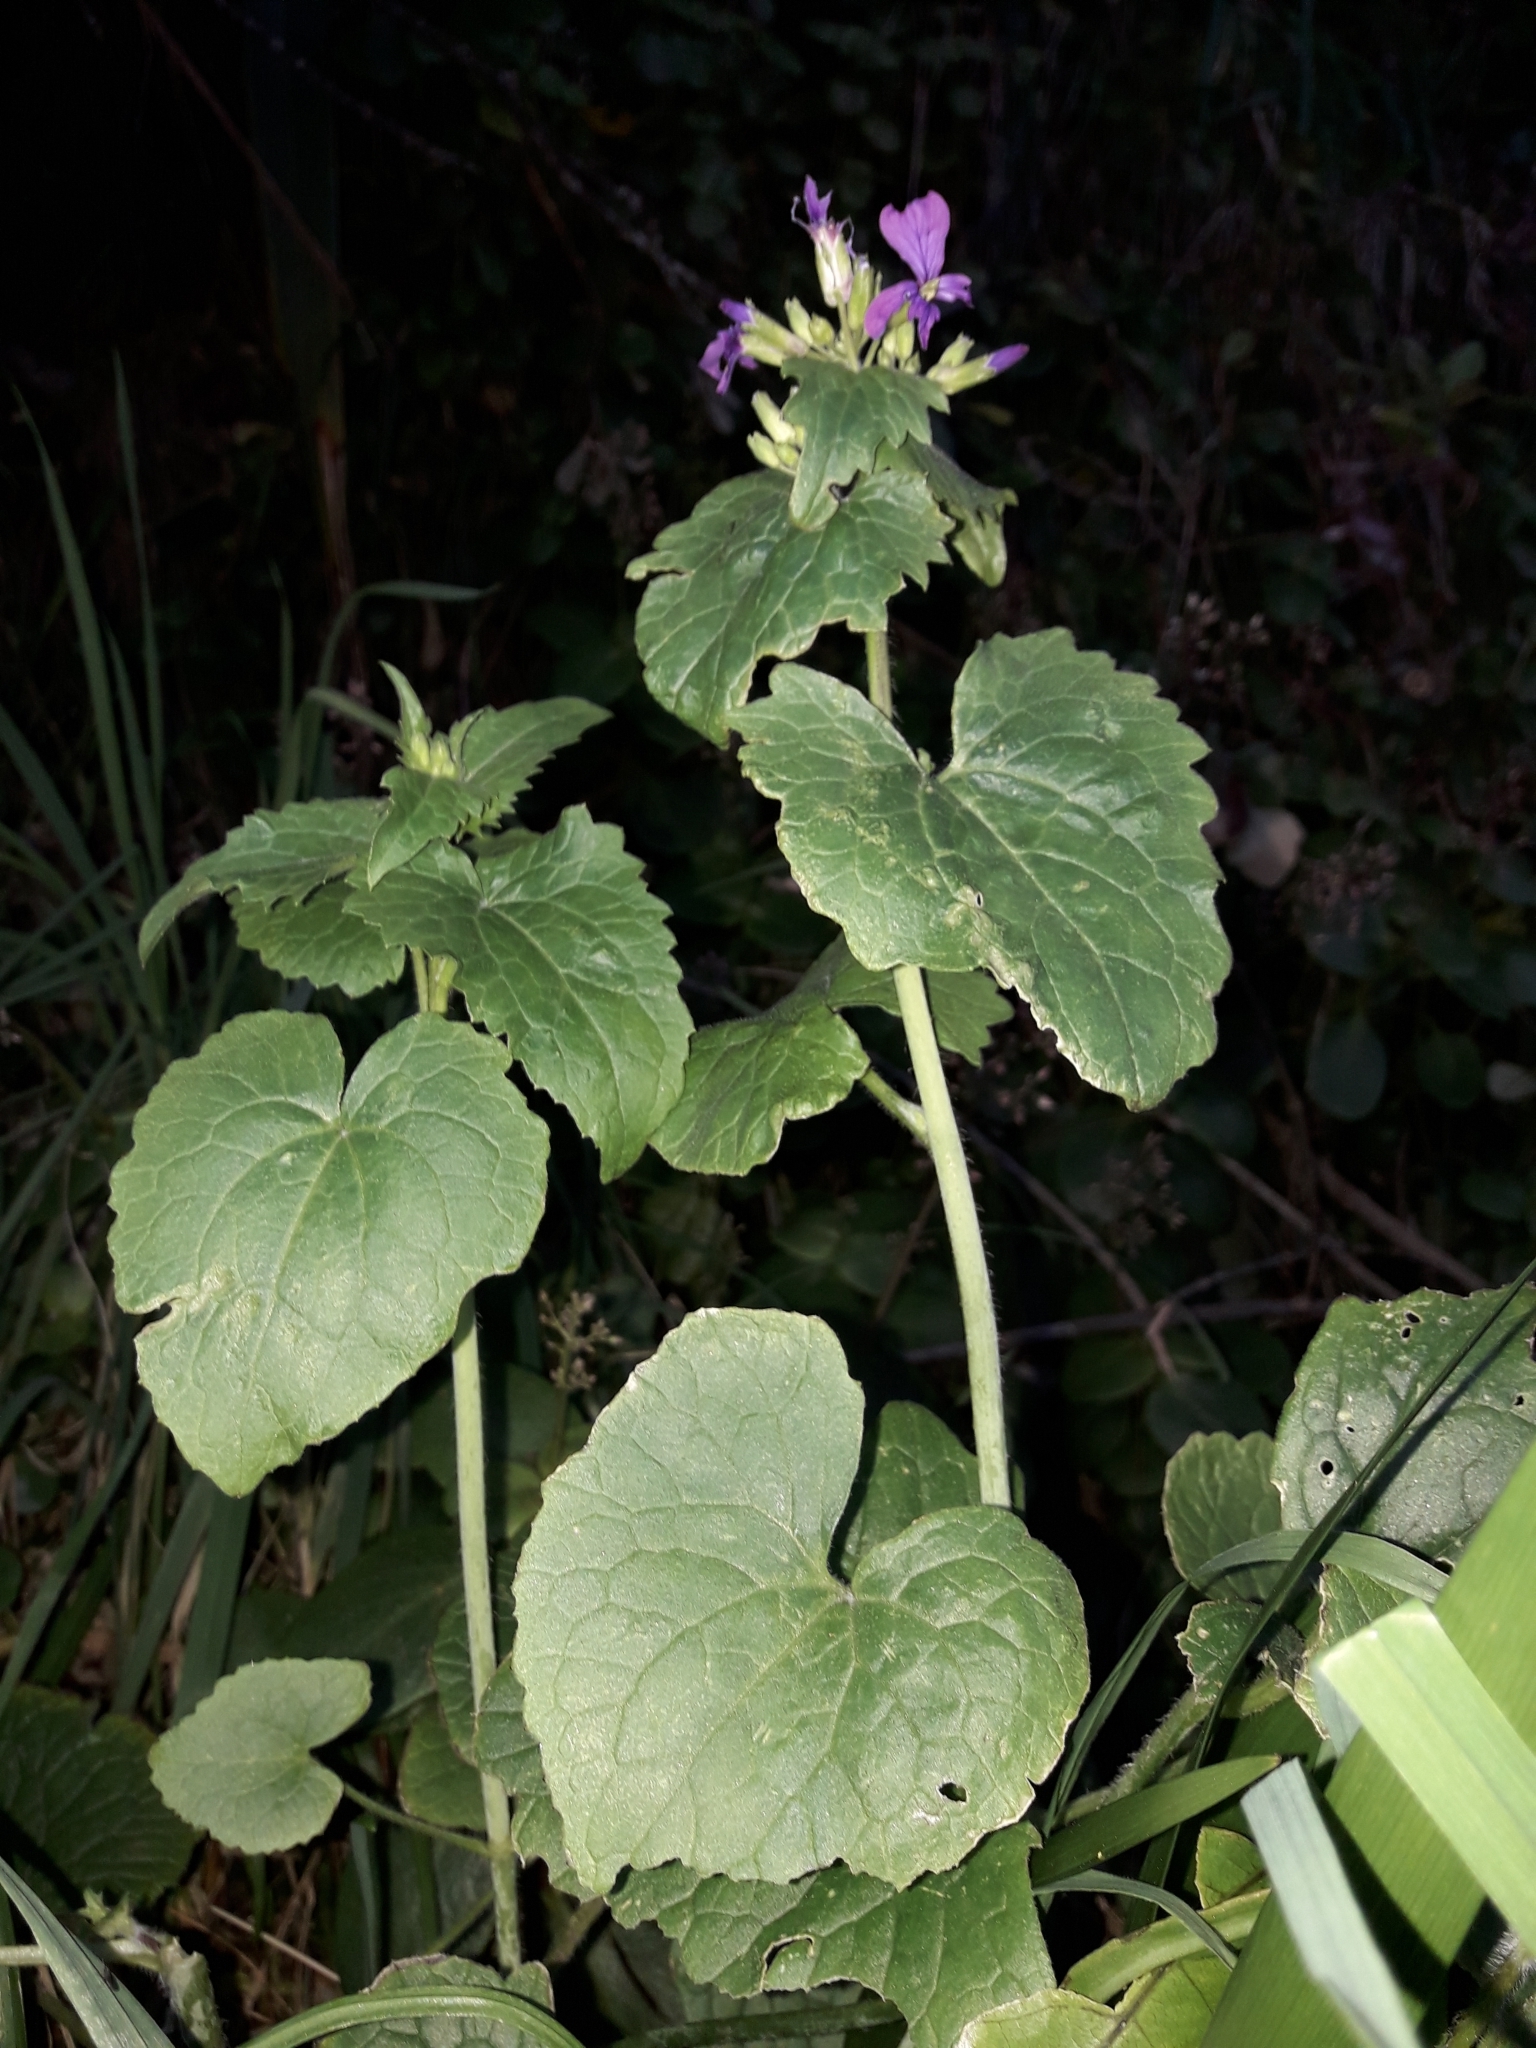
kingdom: Plantae
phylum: Tracheophyta
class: Magnoliopsida
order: Brassicales
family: Brassicaceae
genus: Lunaria
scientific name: Lunaria annua
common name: Honesty
